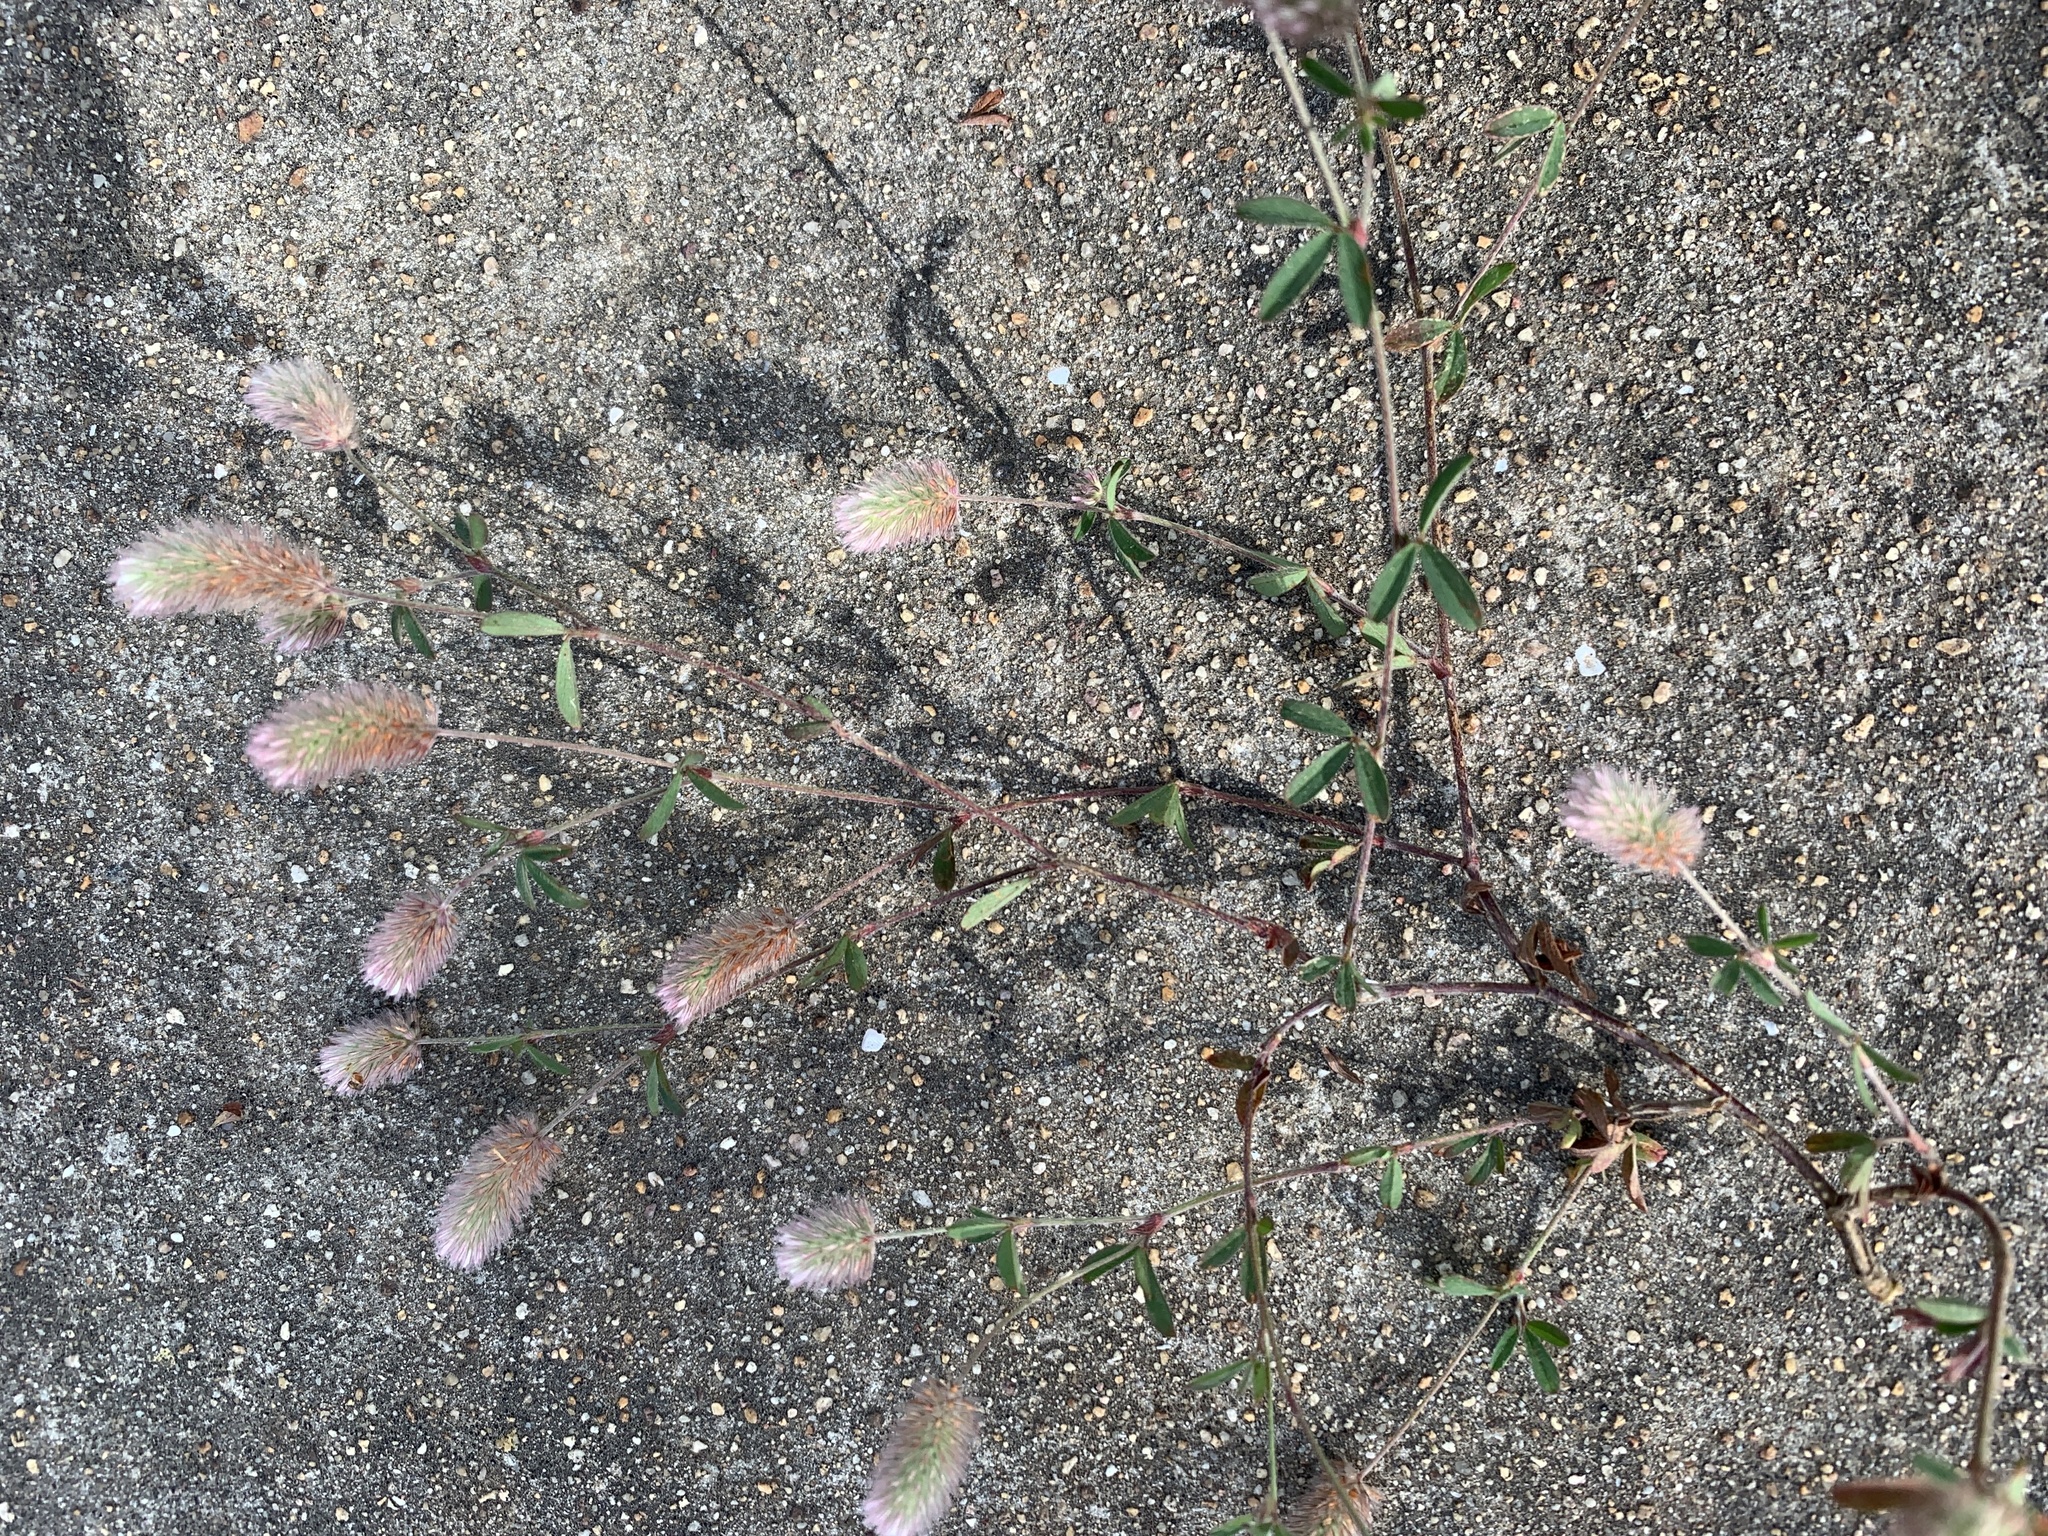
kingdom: Plantae
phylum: Tracheophyta
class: Magnoliopsida
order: Fabales
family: Fabaceae
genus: Trifolium
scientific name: Trifolium arvense
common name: Hare's-foot clover
